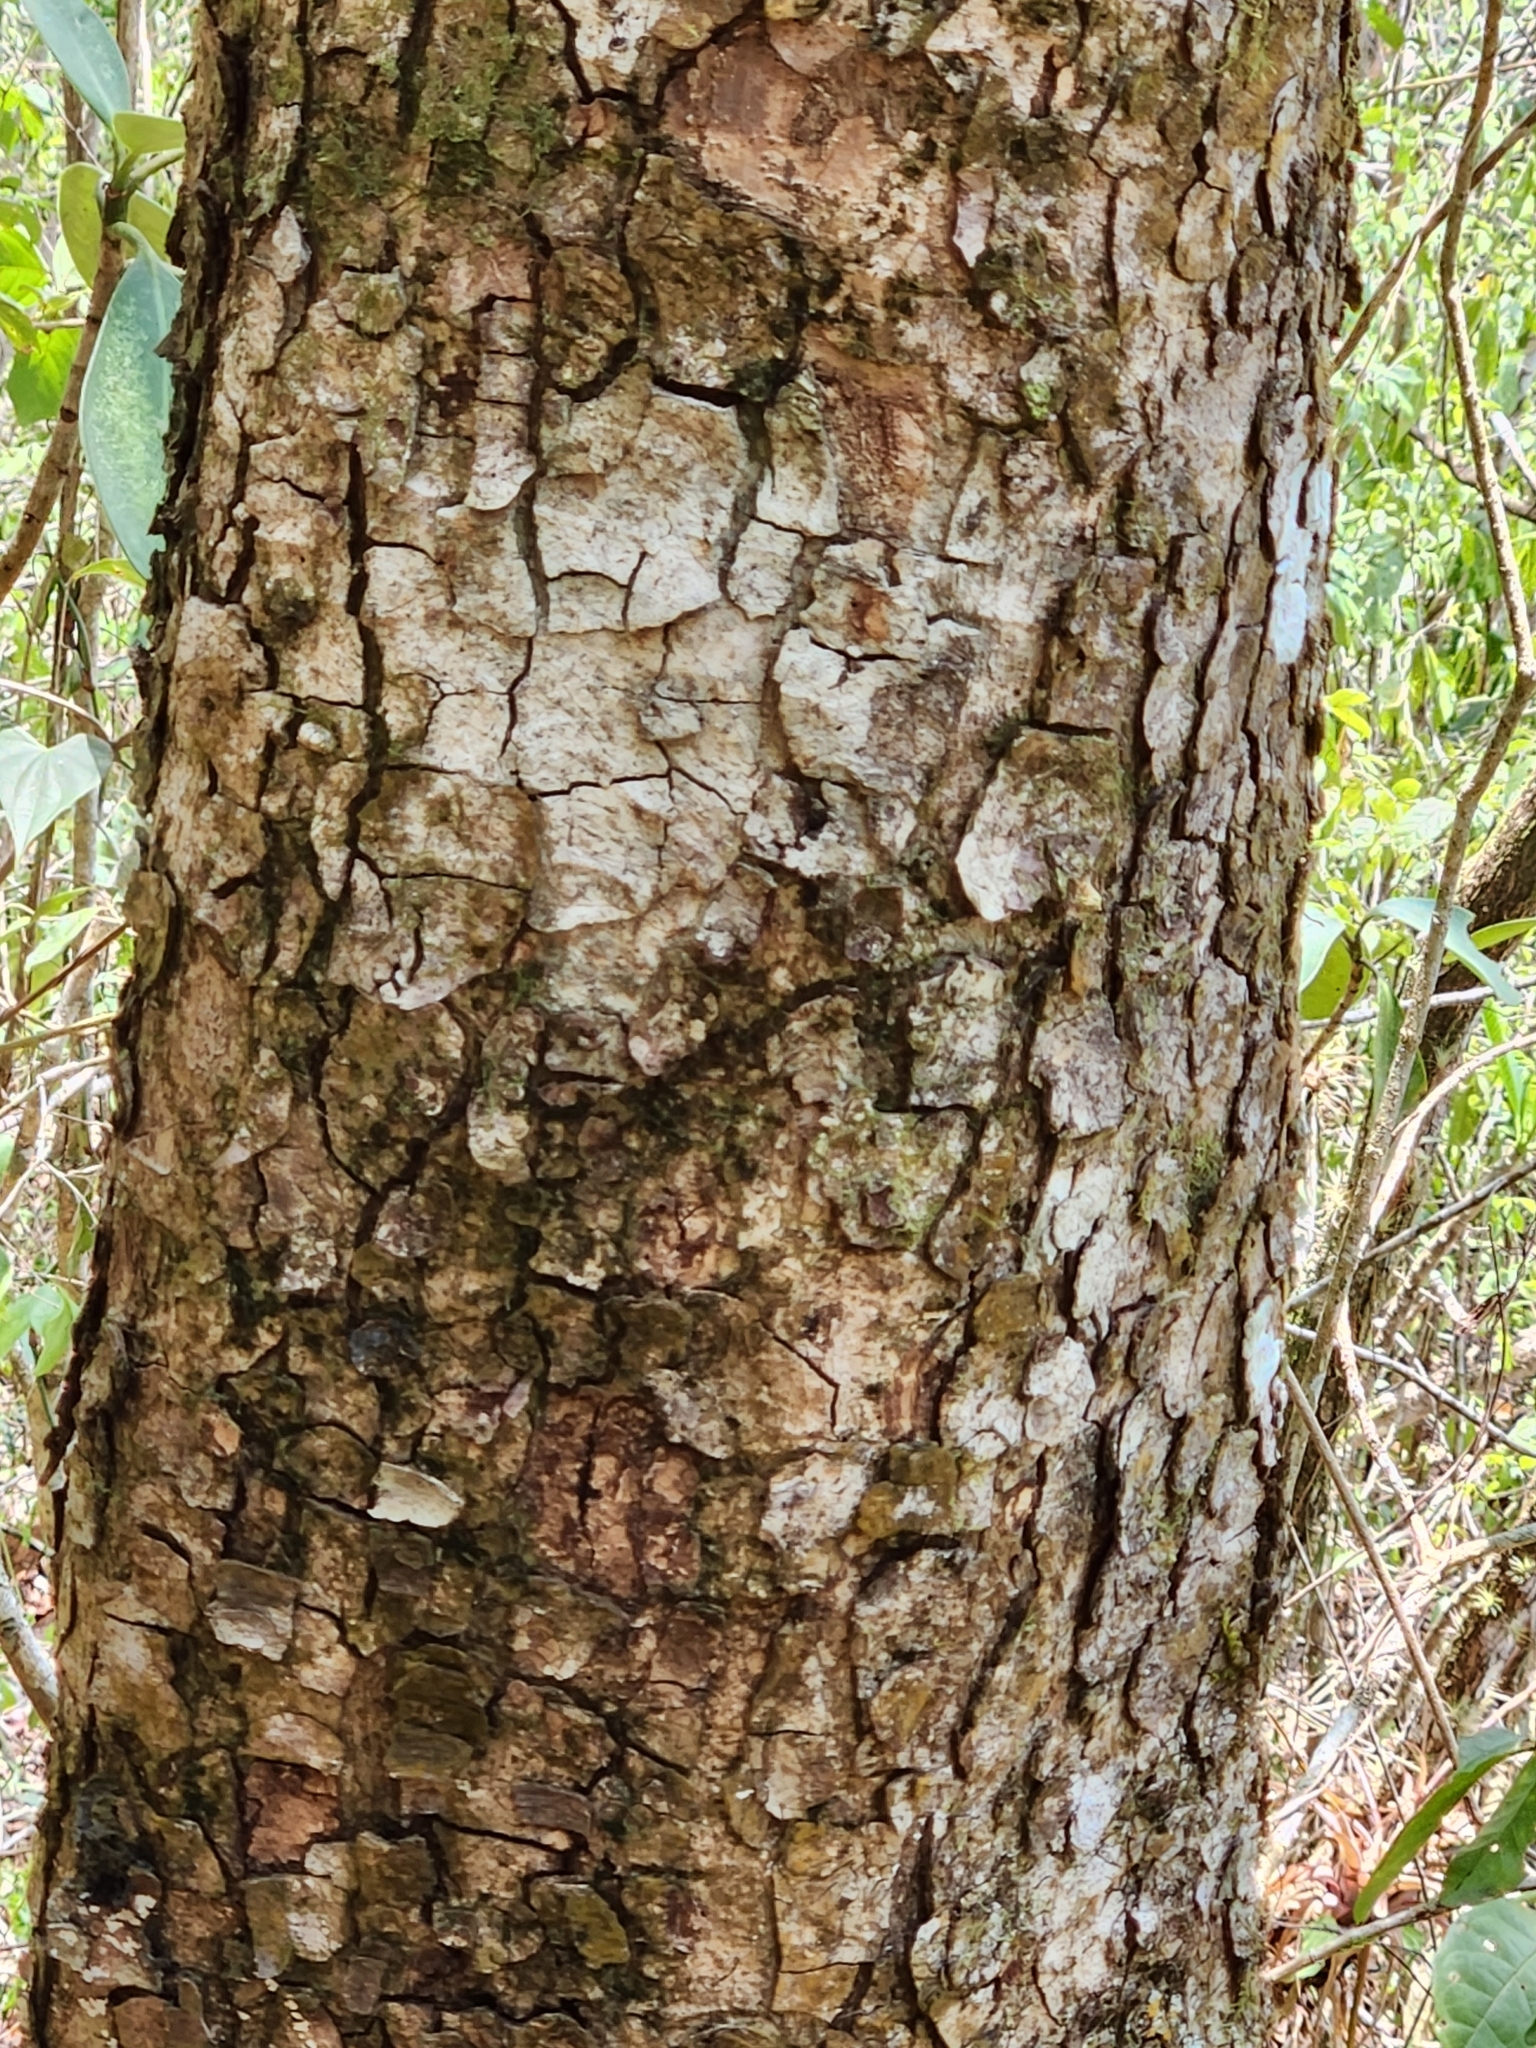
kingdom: Plantae
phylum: Tracheophyta
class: Magnoliopsida
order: Sapindales
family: Anacardiaceae
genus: Metopium
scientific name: Metopium brownei
